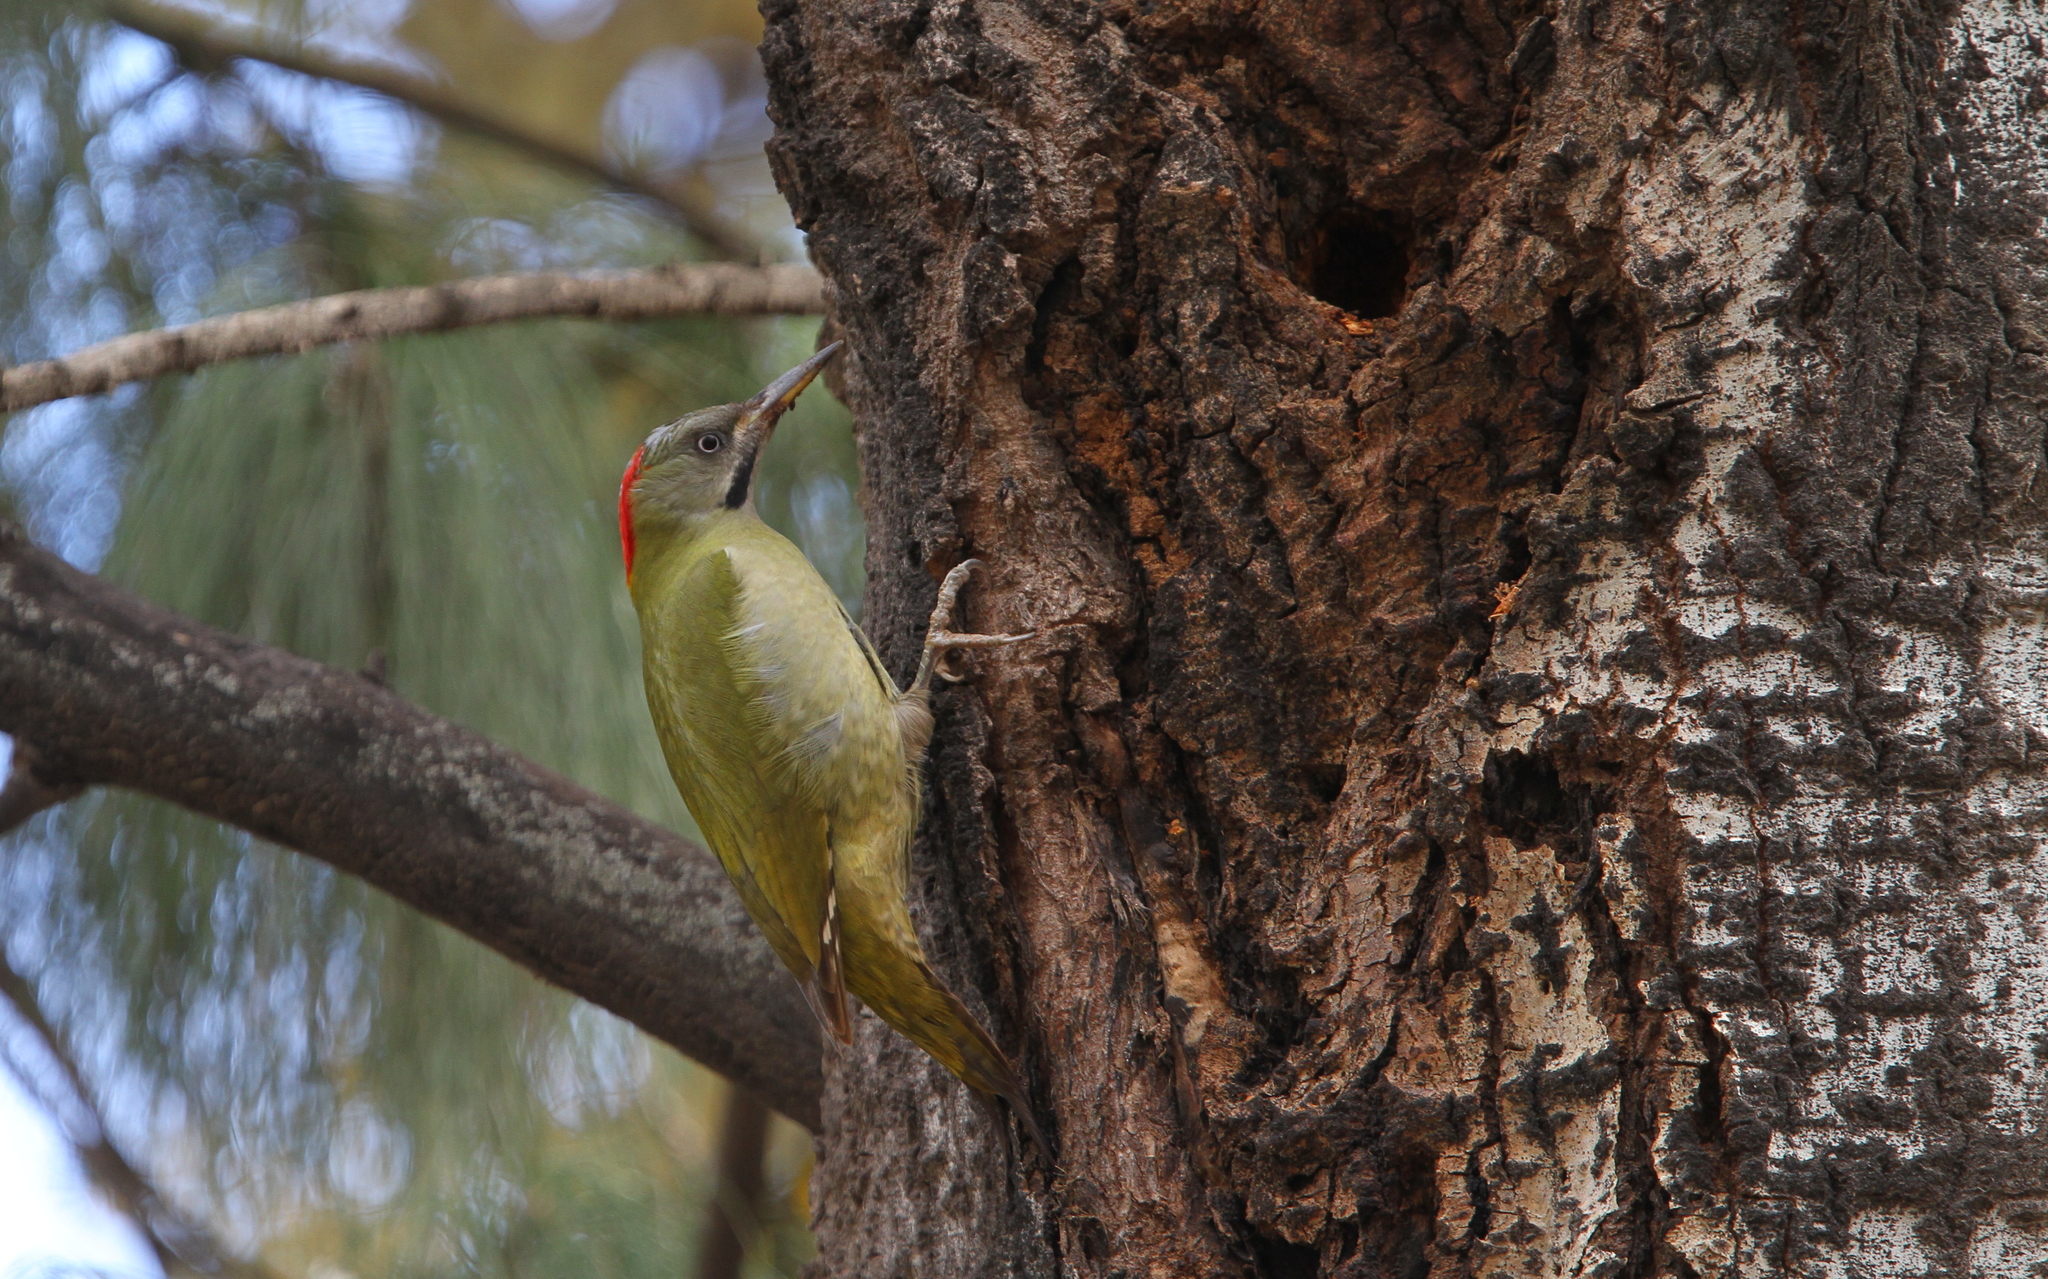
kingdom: Animalia
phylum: Chordata
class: Aves
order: Piciformes
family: Picidae
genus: Picus
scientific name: Picus vaillantii
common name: Levaillant's woodpecker
